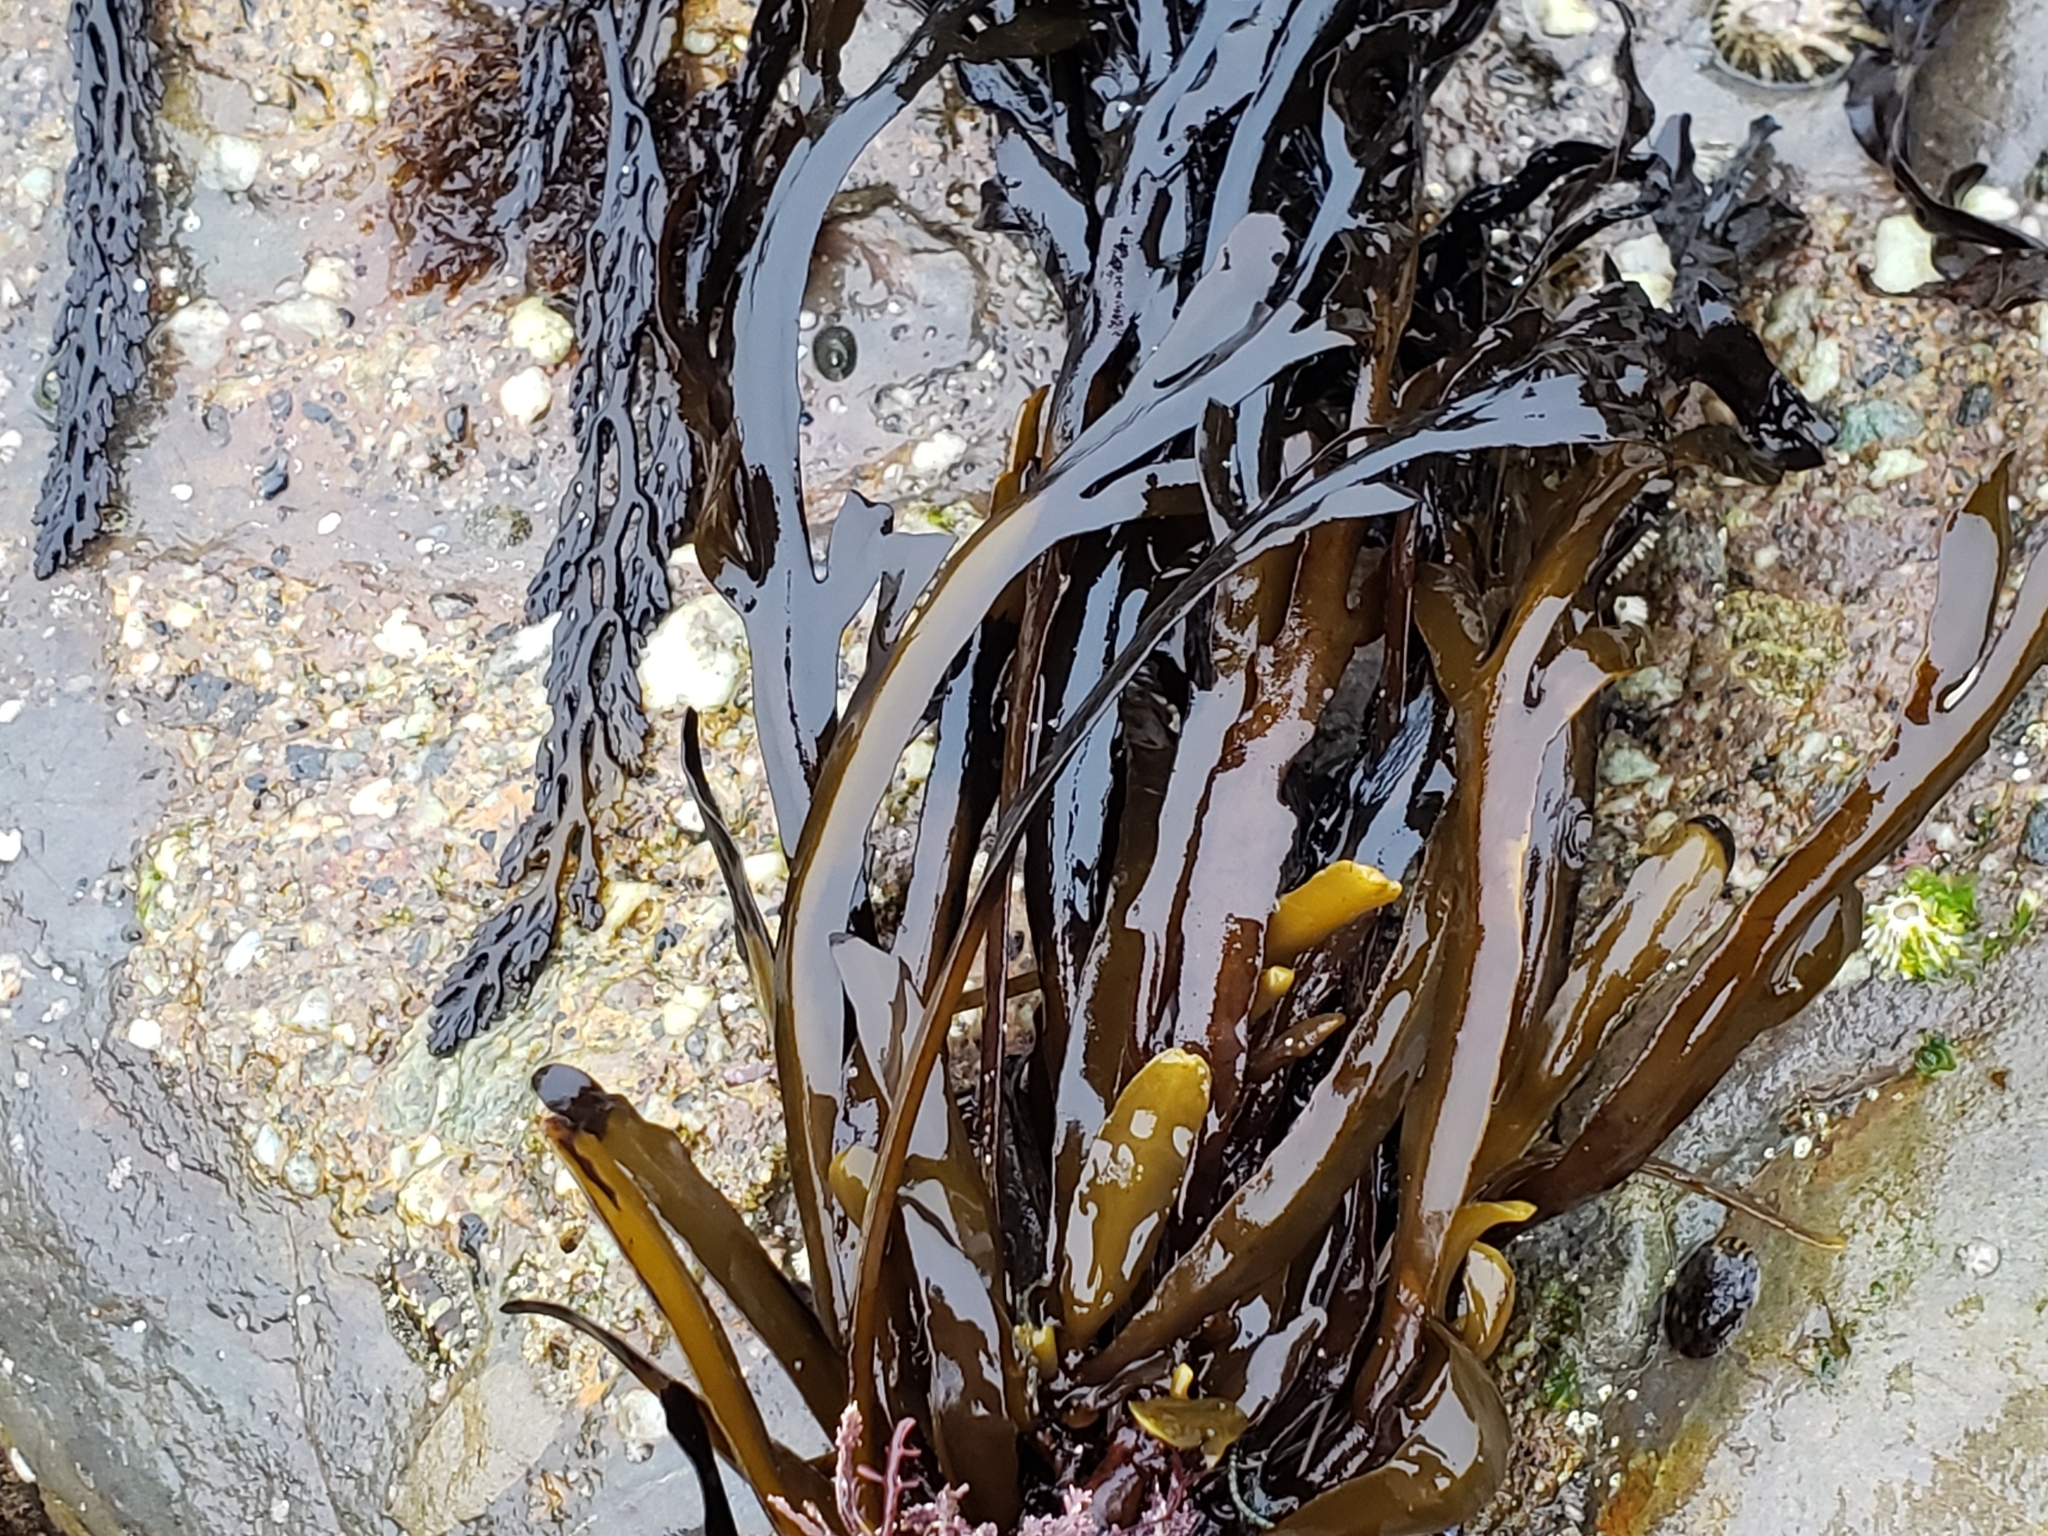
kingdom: Chromista
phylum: Ochrophyta
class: Phaeophyceae
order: Fucales
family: Sargassaceae
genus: Stephanocystis
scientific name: Stephanocystis
